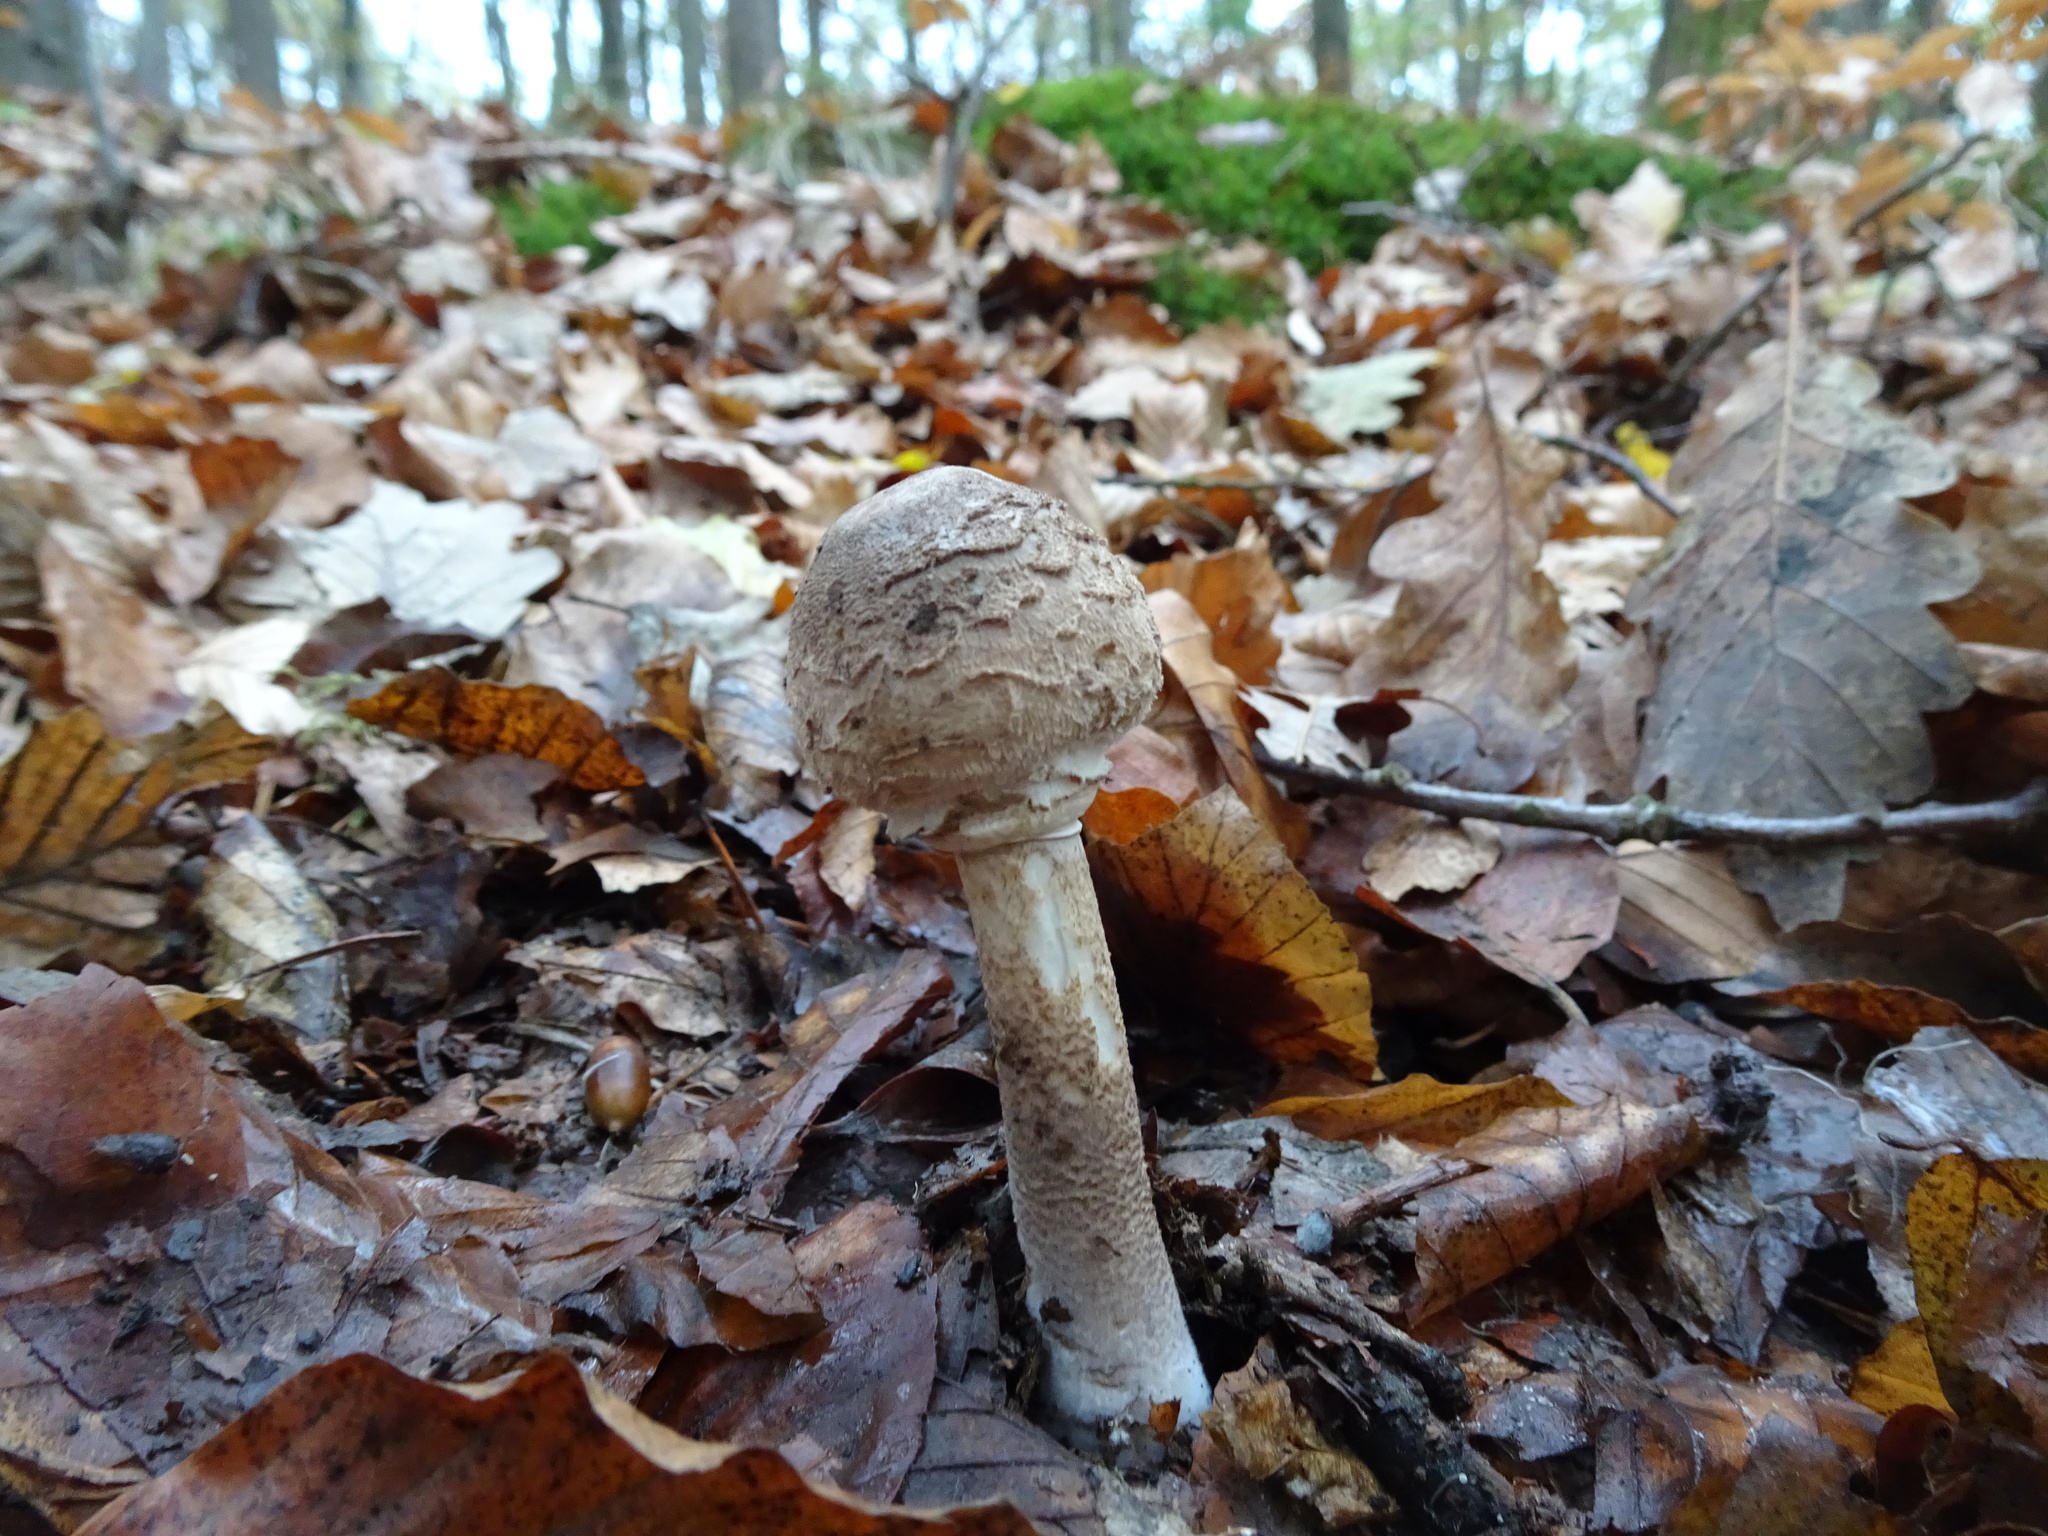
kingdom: Fungi
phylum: Basidiomycota
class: Agaricomycetes
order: Agaricales
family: Agaricaceae
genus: Chlorophyllum
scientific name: Chlorophyllum rhacodes
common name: Shaggy parasol
